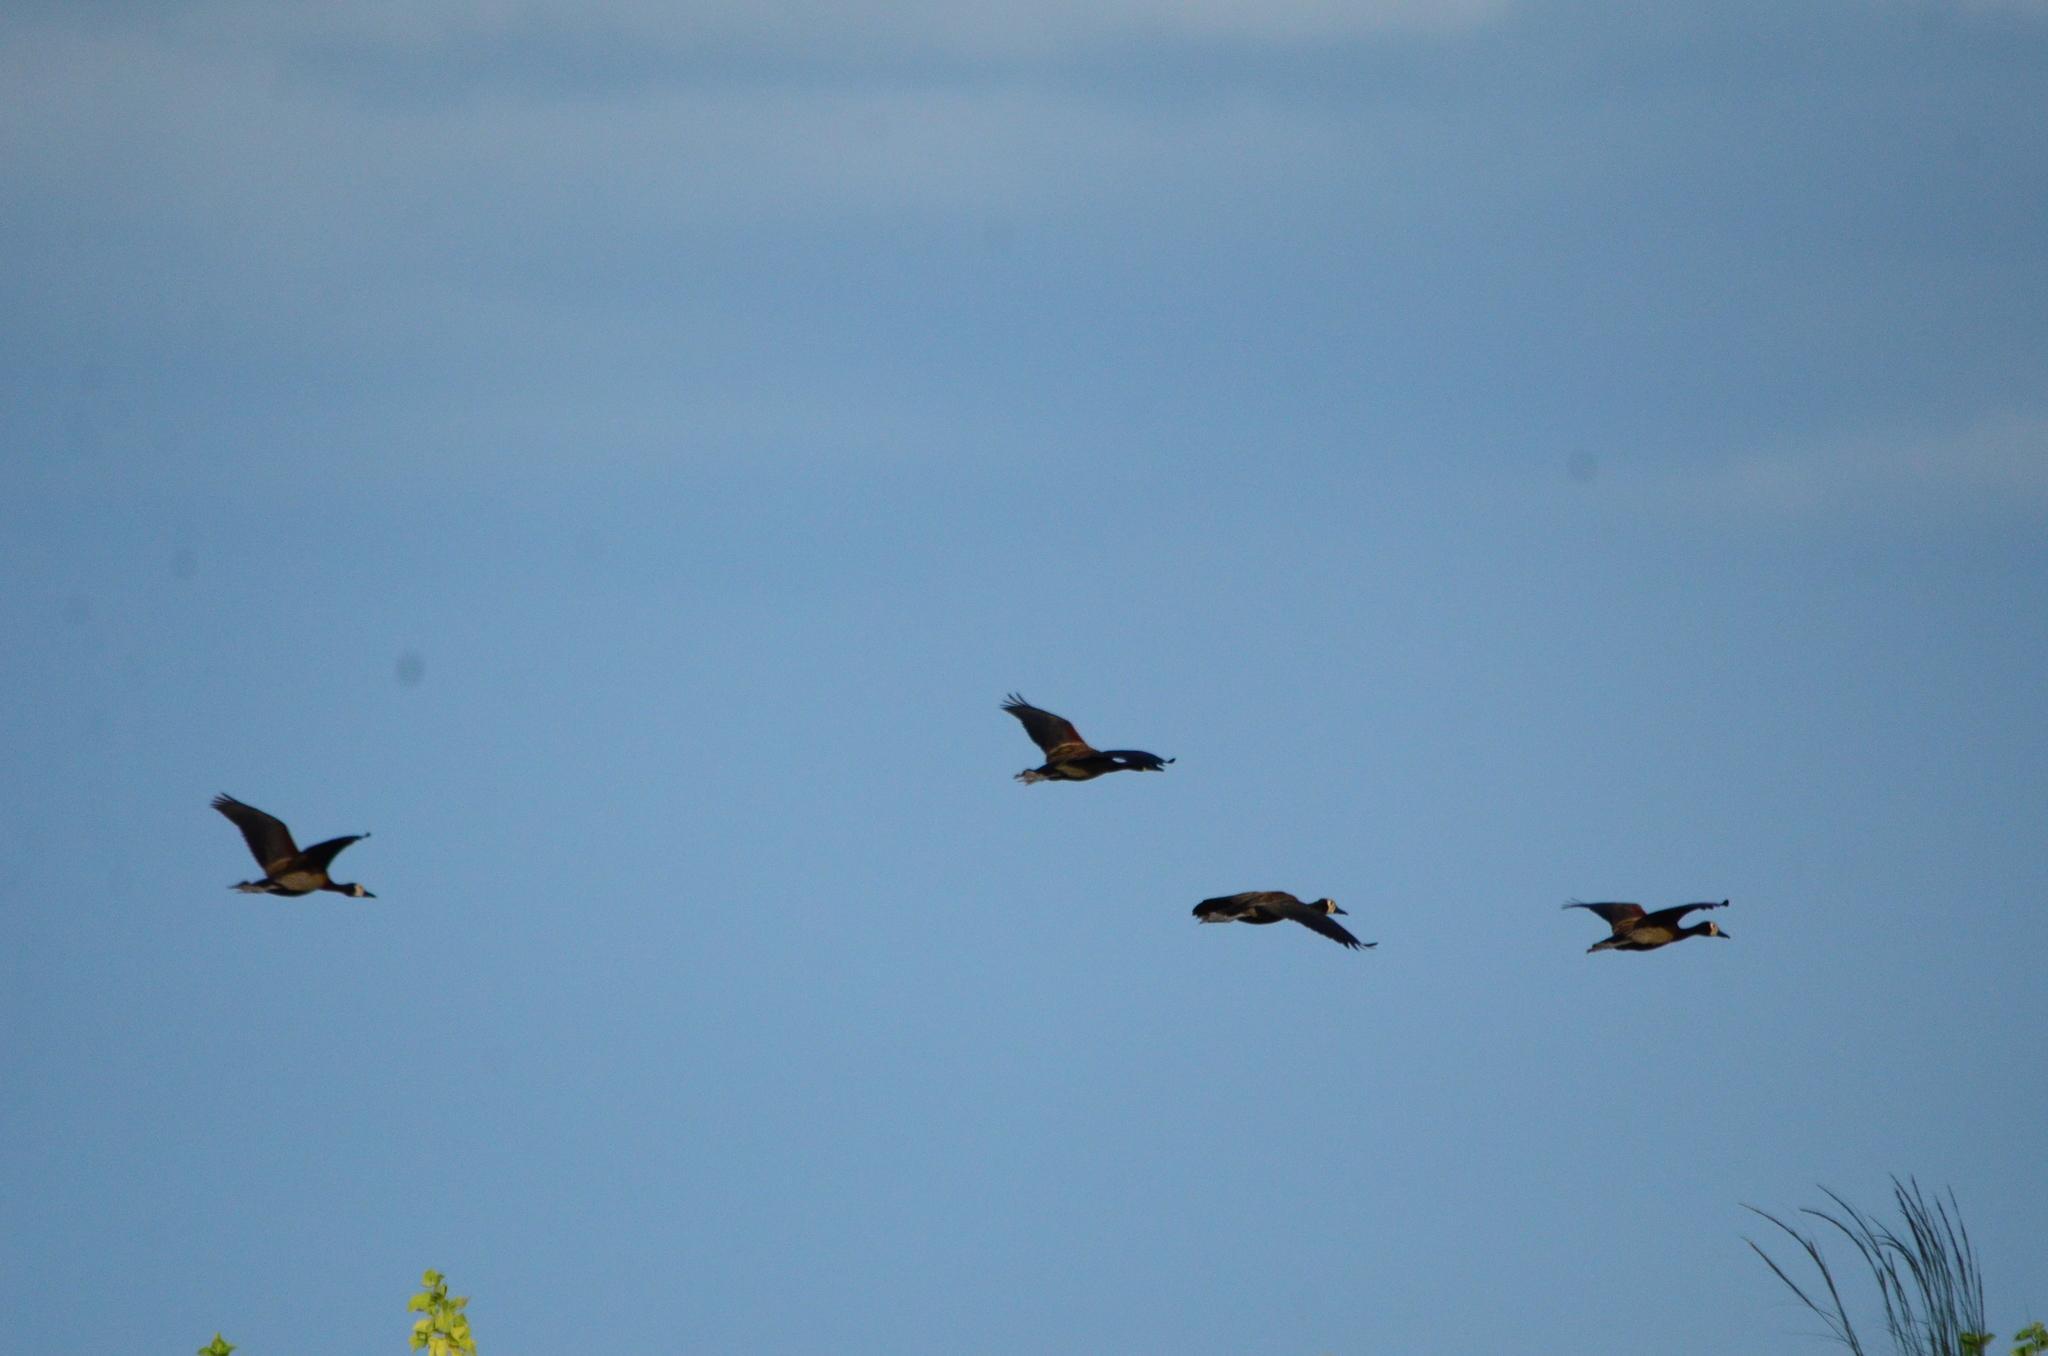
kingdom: Animalia
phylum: Chordata
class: Aves
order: Anseriformes
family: Anatidae
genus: Dendrocygna
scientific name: Dendrocygna viduata
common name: White-faced whistling duck
